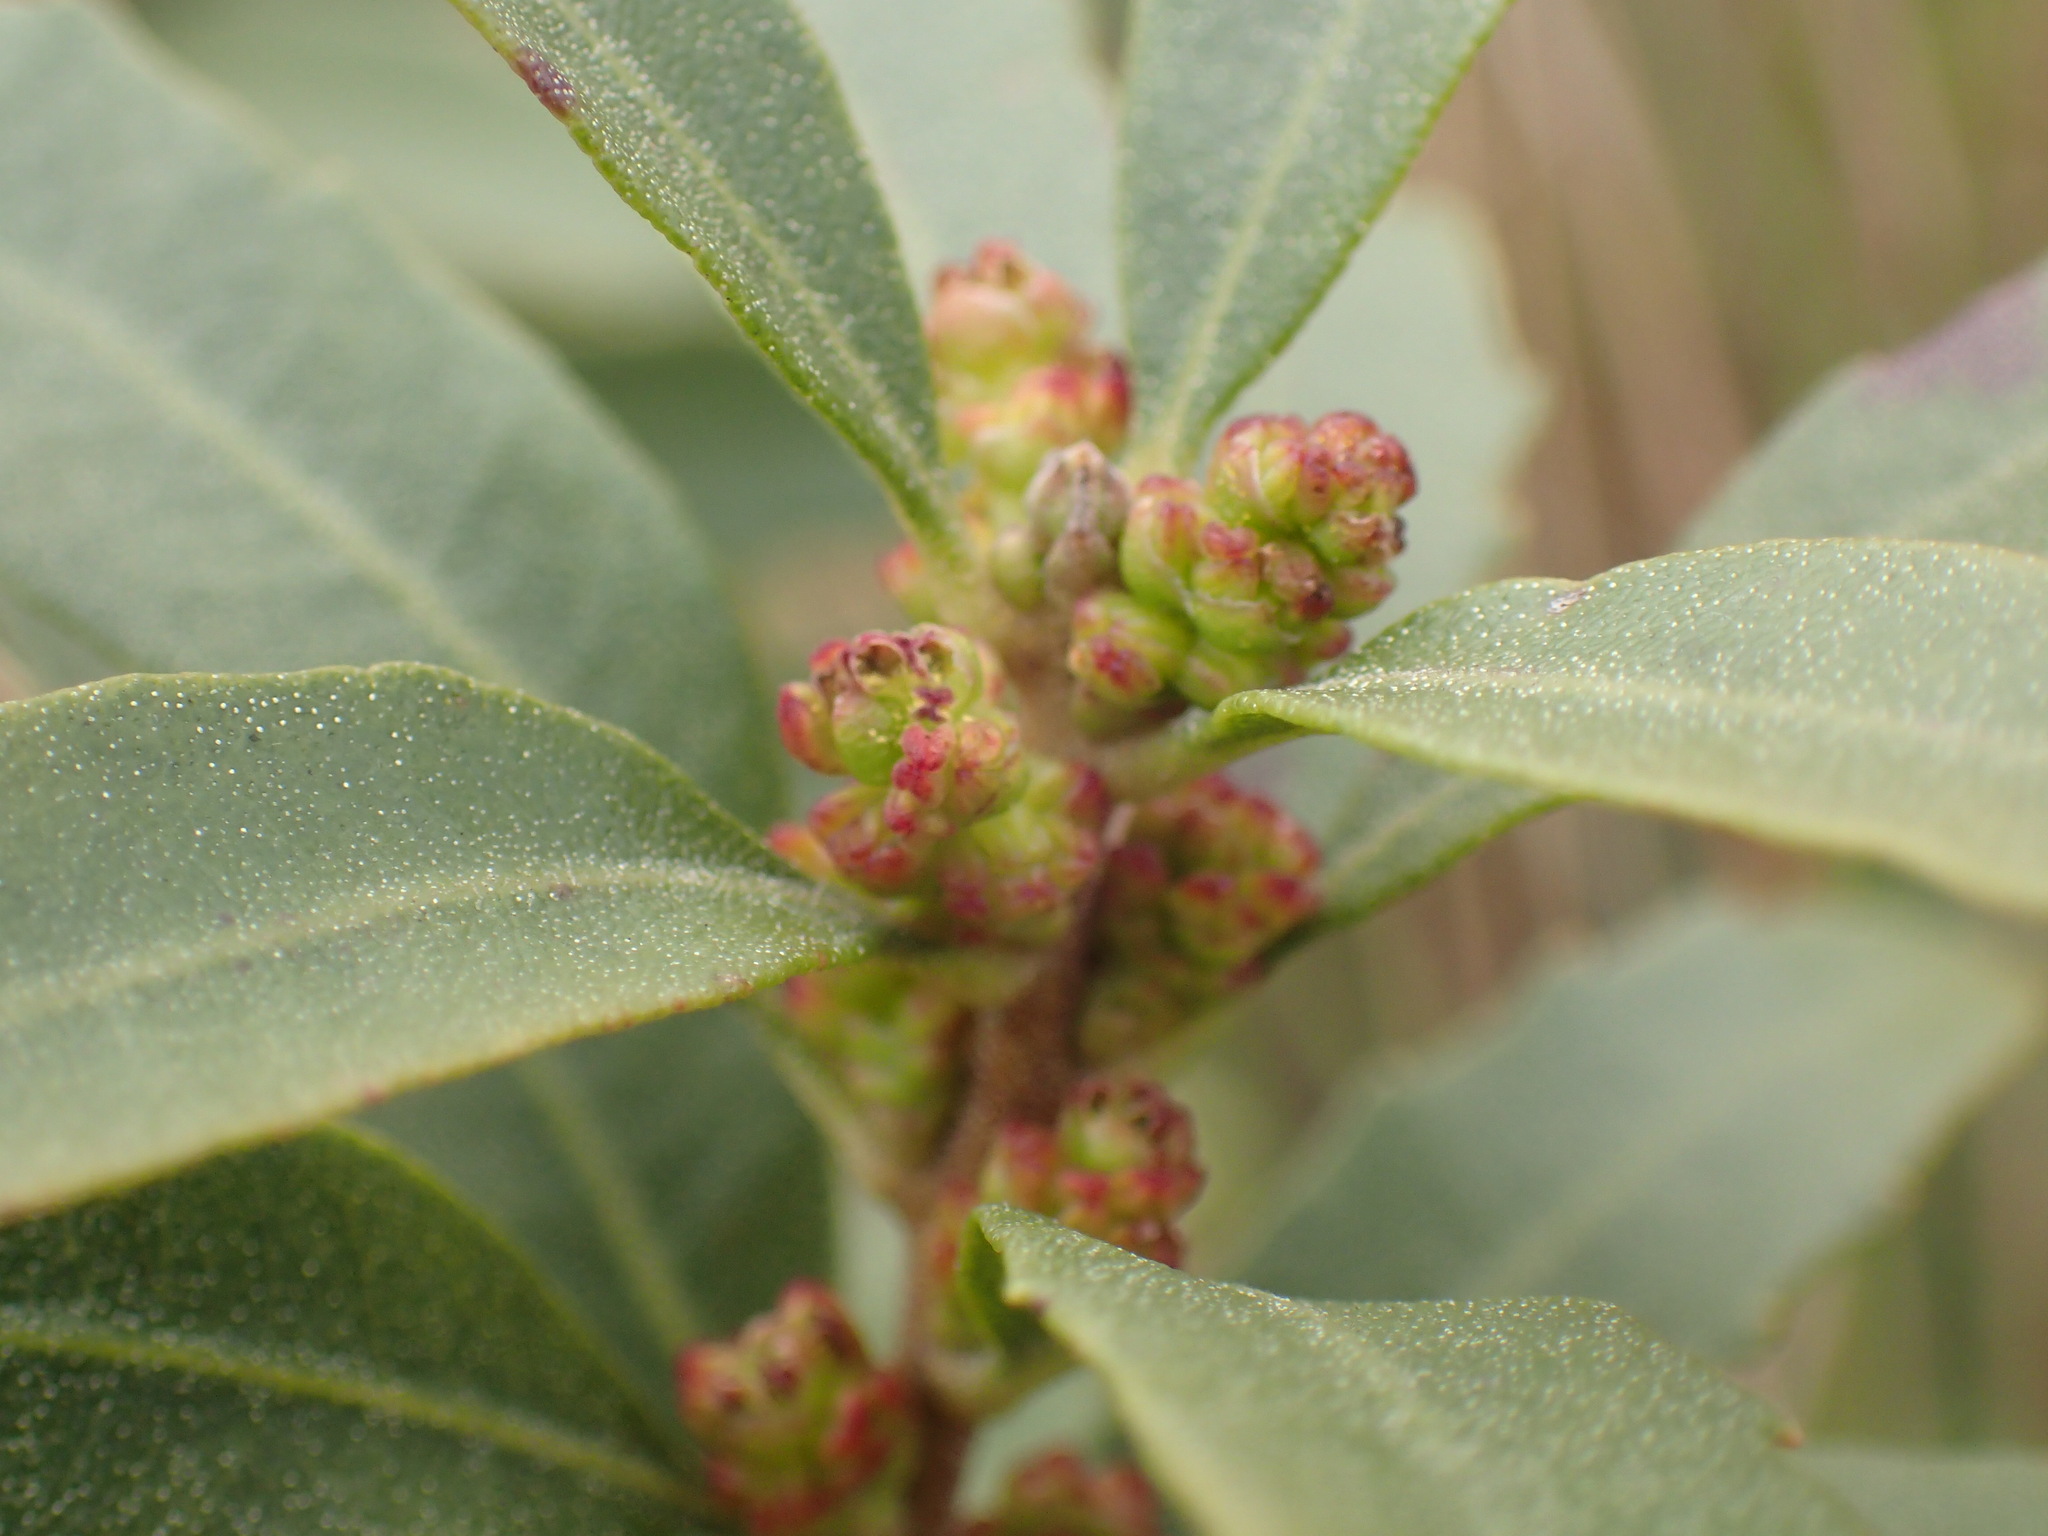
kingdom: Plantae
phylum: Tracheophyta
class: Magnoliopsida
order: Fagales
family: Myricaceae
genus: Morella
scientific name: Morella brevifolia
